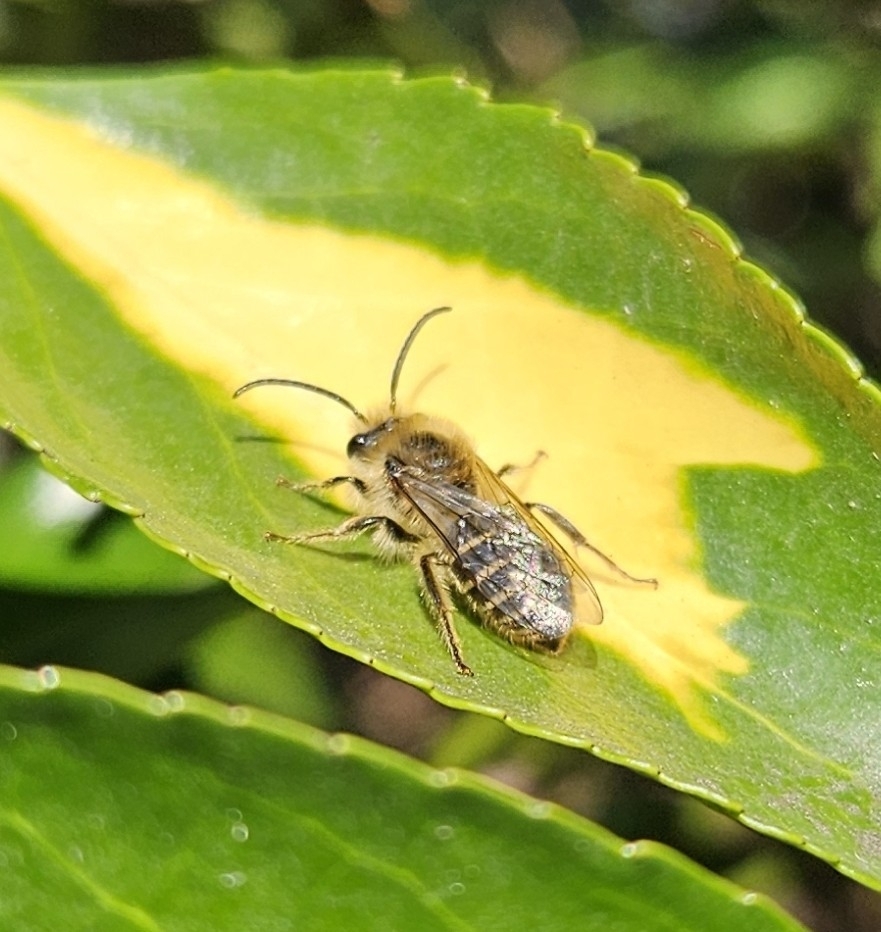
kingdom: Animalia
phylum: Arthropoda
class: Insecta
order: Hymenoptera
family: Colletidae
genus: Colletes
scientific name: Colletes inaequalis
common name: Unequal cellophane bee
